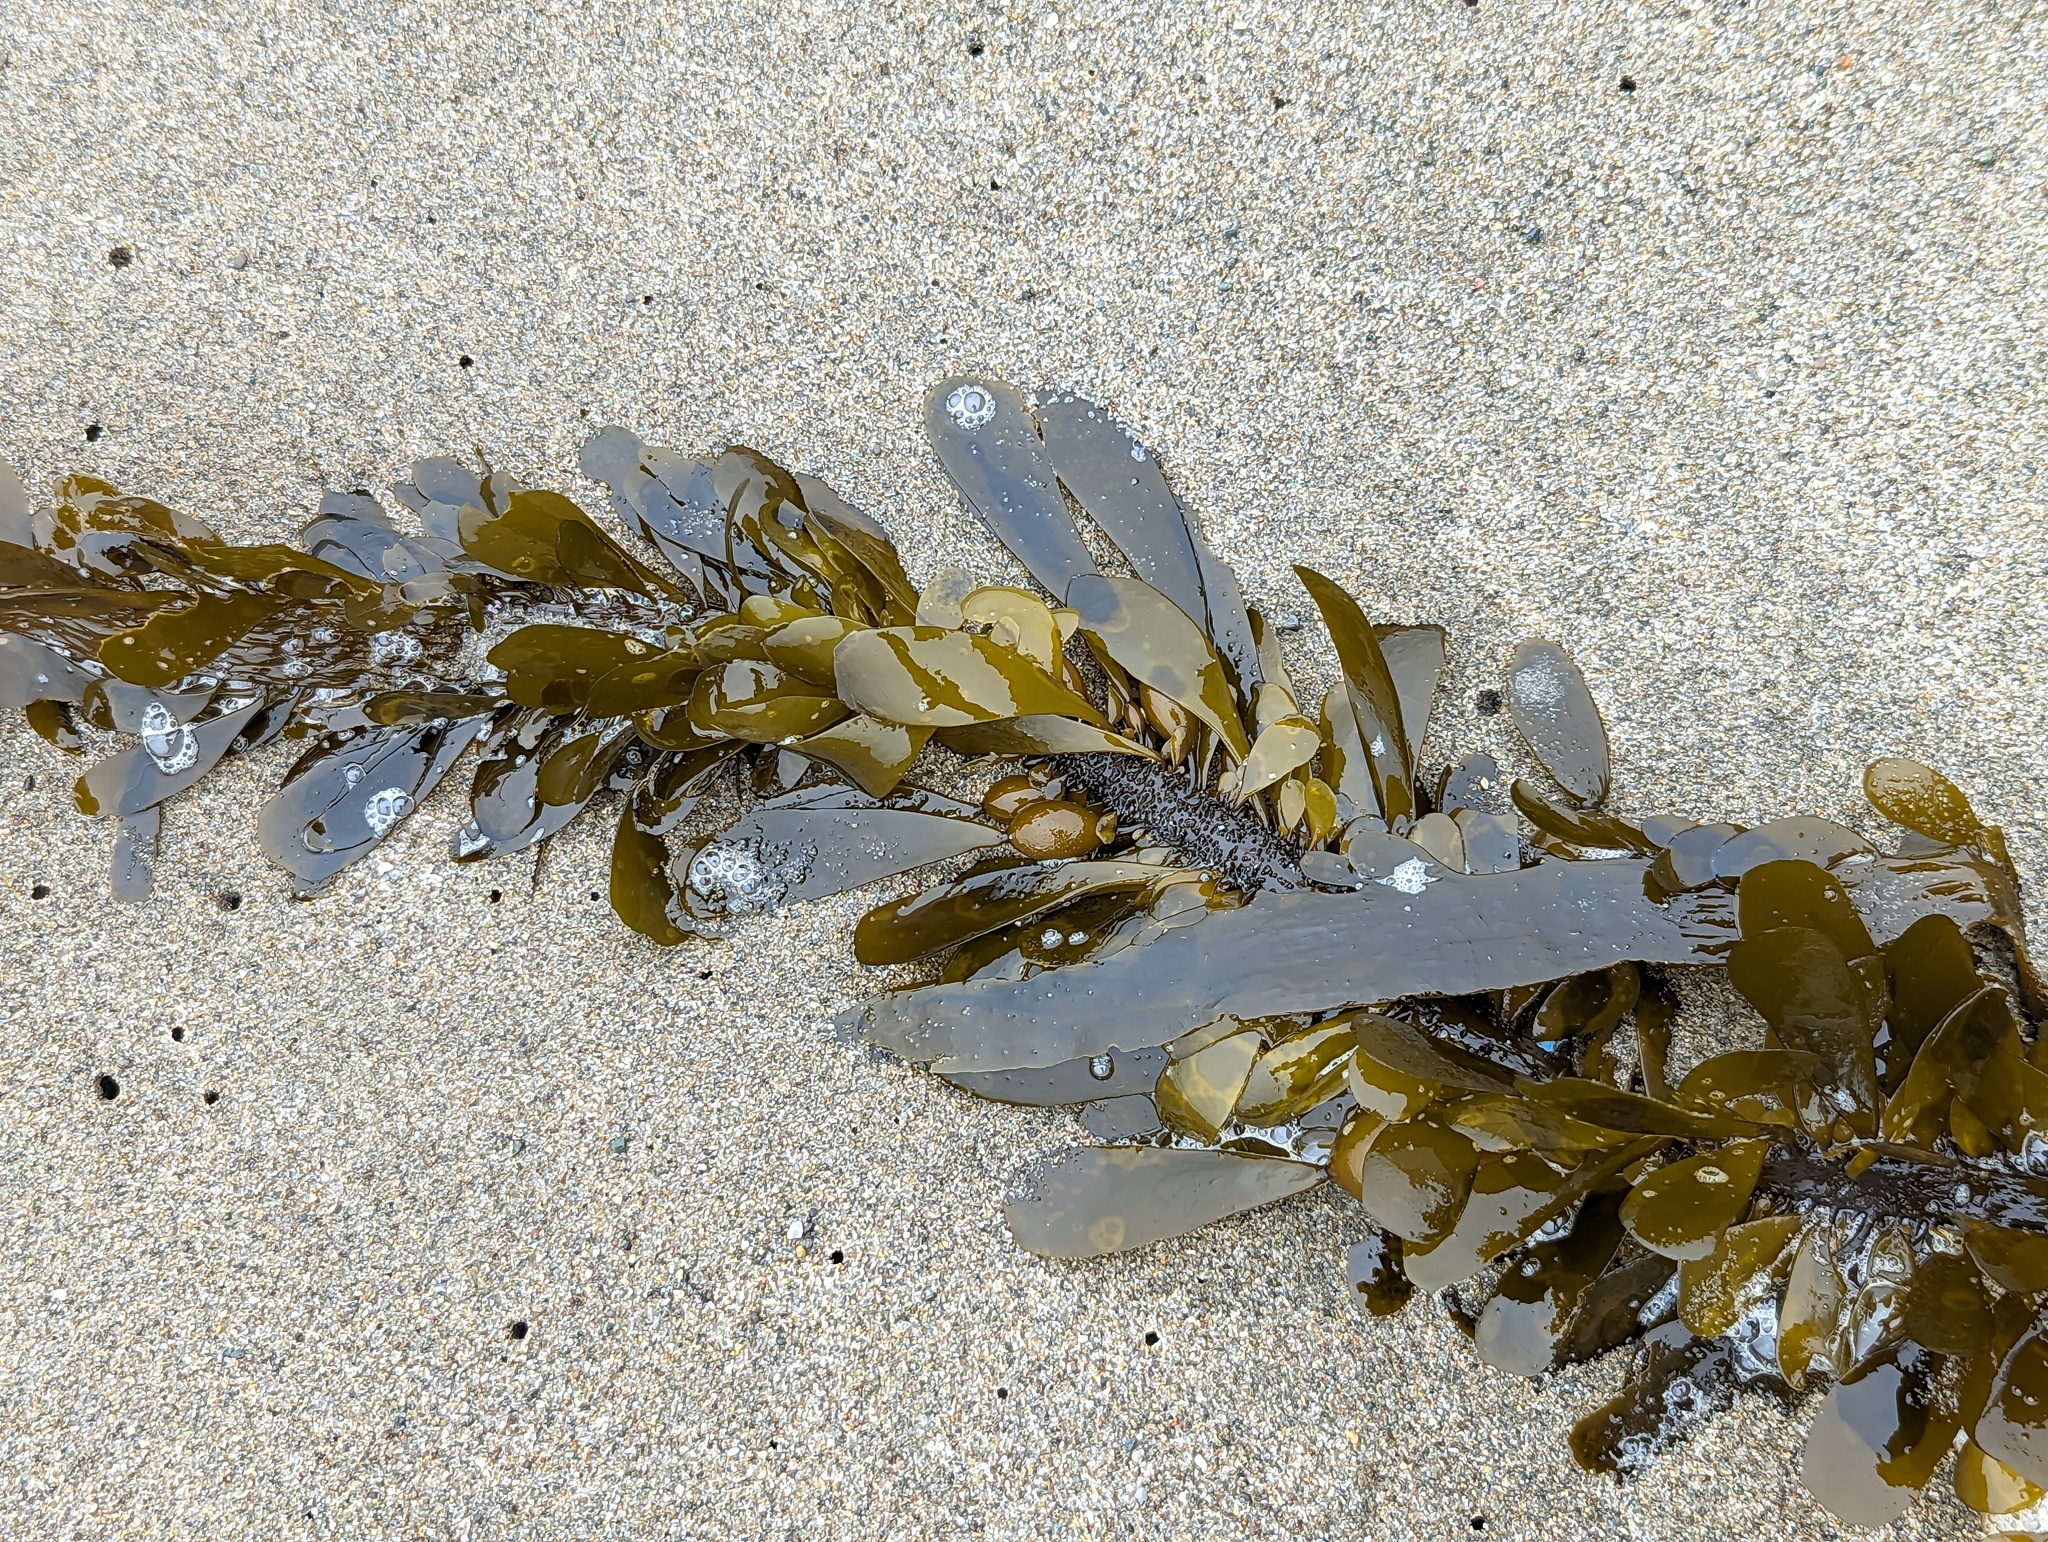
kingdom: Chromista
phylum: Ochrophyta
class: Phaeophyceae
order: Laminariales
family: Lessoniaceae
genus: Egregia
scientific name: Egregia menziesii
